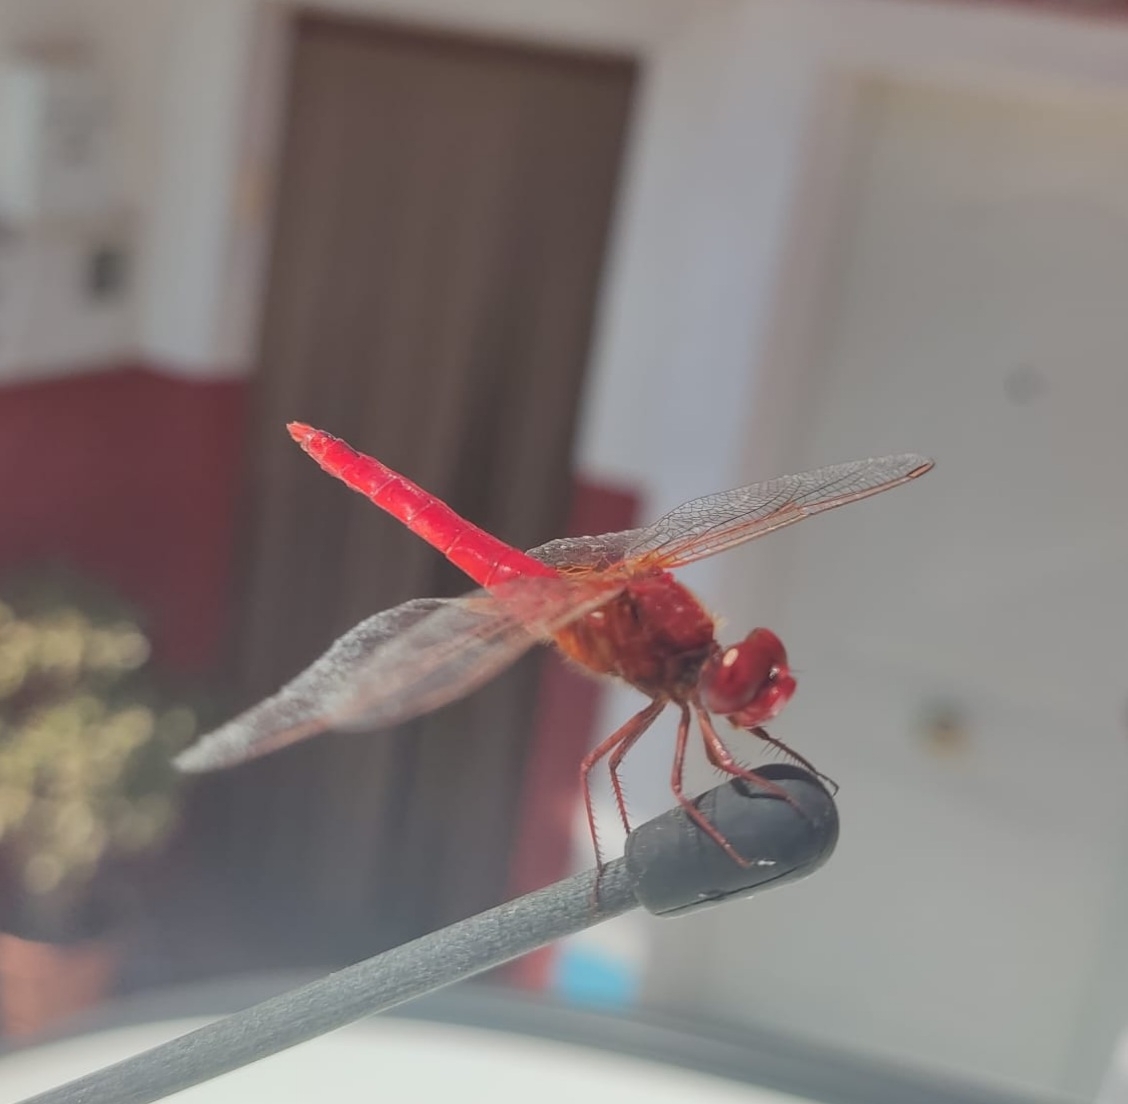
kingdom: Animalia
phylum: Arthropoda
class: Insecta
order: Odonata
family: Libellulidae
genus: Crocothemis
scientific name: Crocothemis erythraea
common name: Scarlet dragonfly
